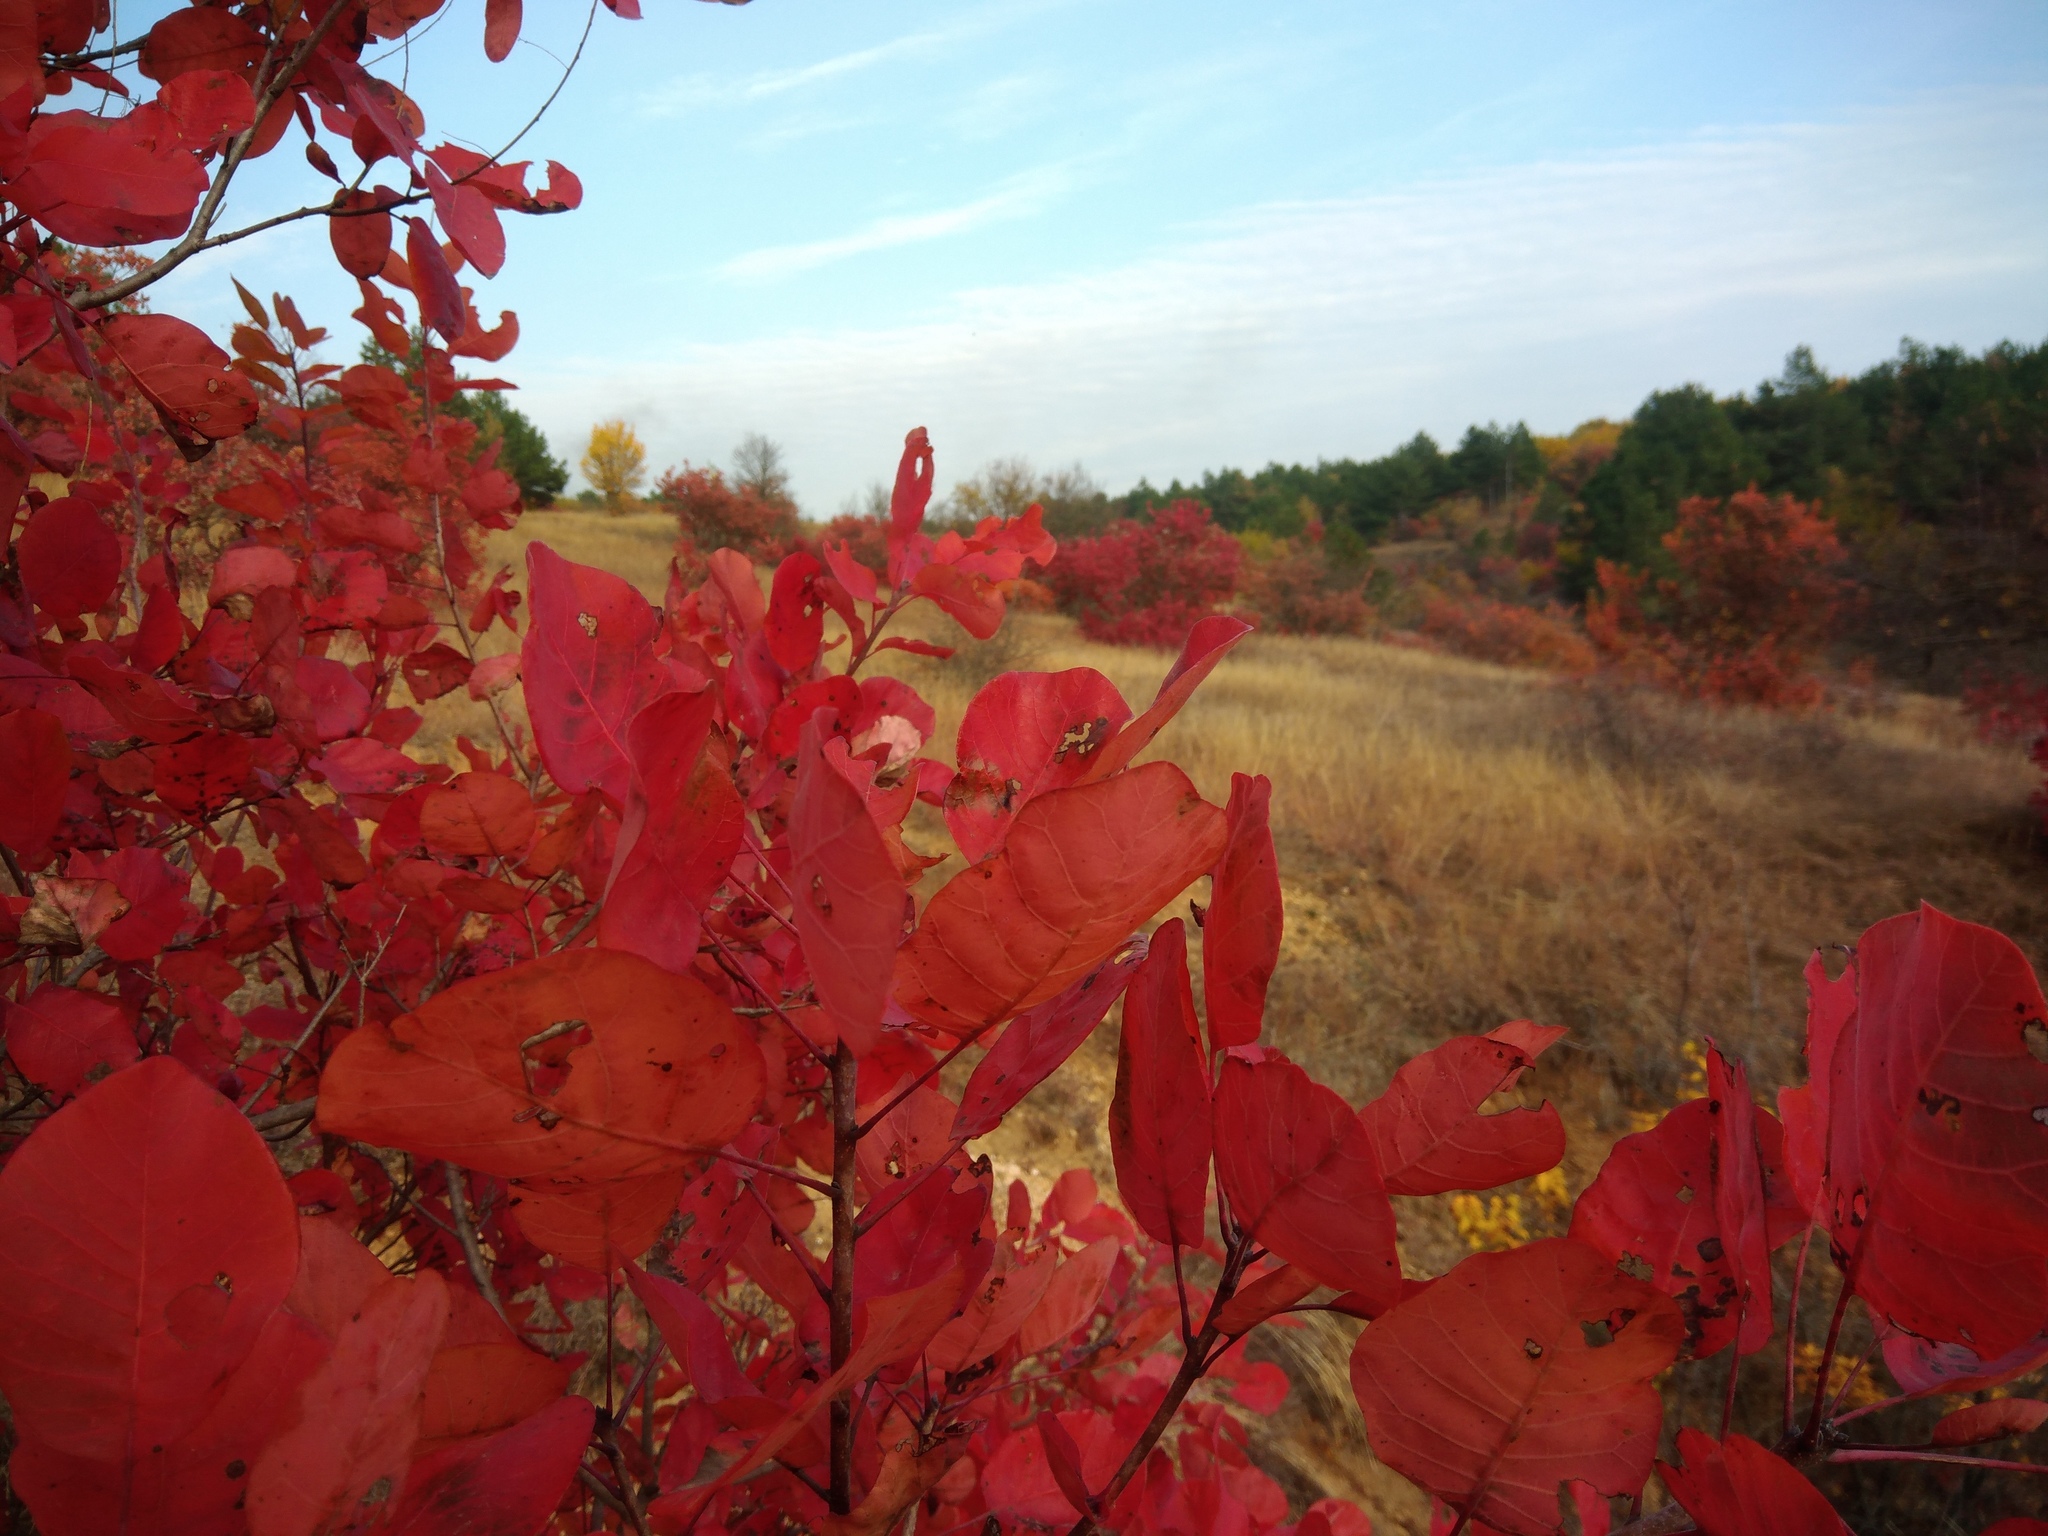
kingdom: Plantae
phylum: Tracheophyta
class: Magnoliopsida
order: Sapindales
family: Anacardiaceae
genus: Cotinus
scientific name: Cotinus coggygria
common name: Smoke-tree
